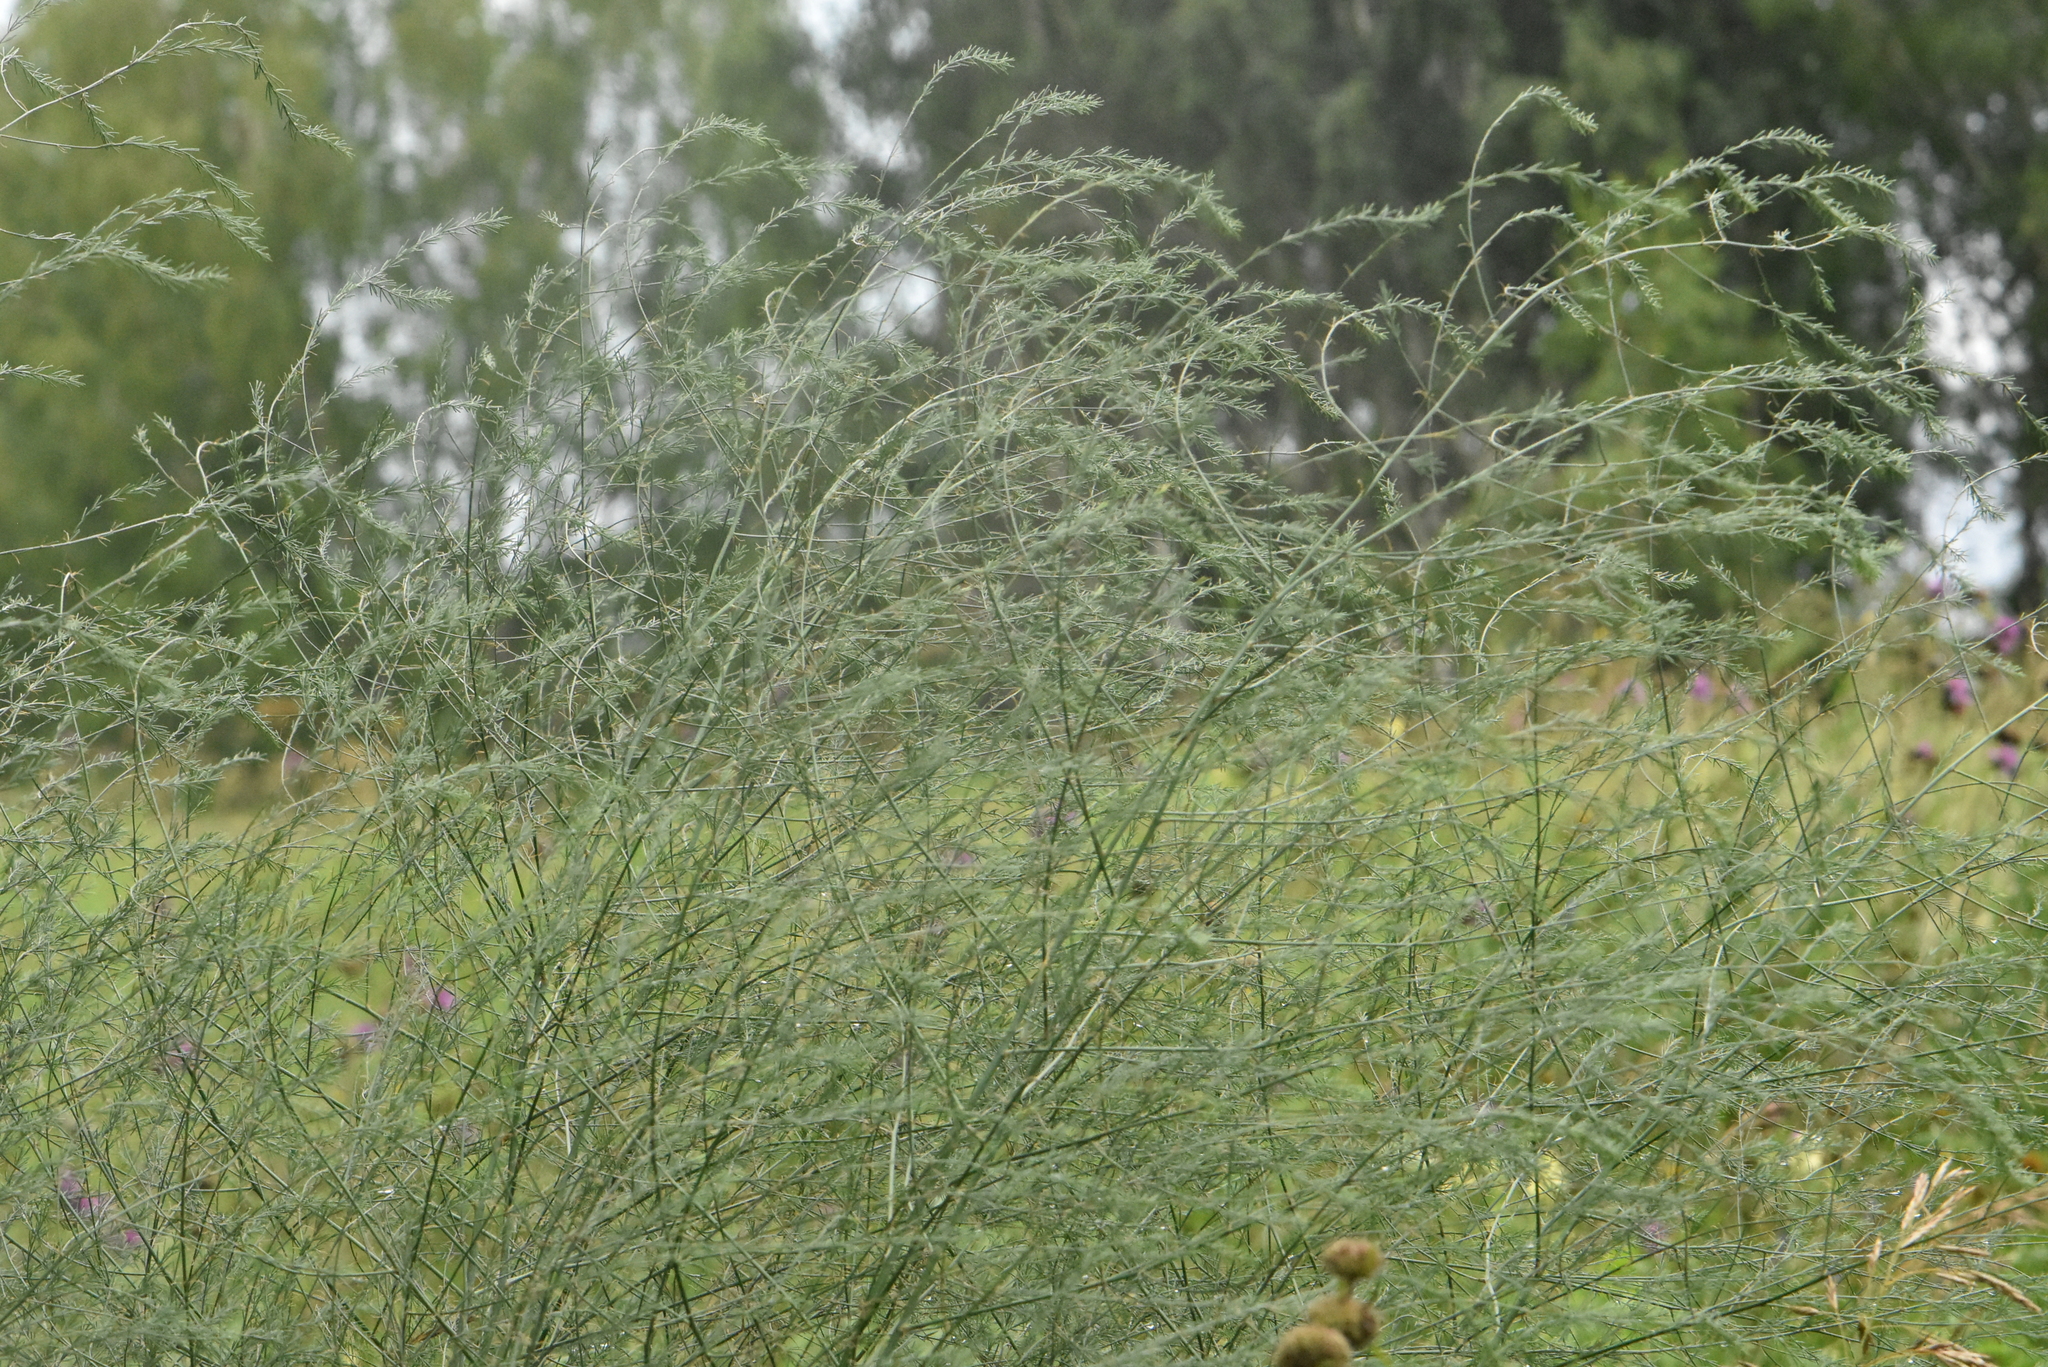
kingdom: Plantae
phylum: Tracheophyta
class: Liliopsida
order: Asparagales
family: Asparagaceae
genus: Asparagus
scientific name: Asparagus officinalis
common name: Garden asparagus
